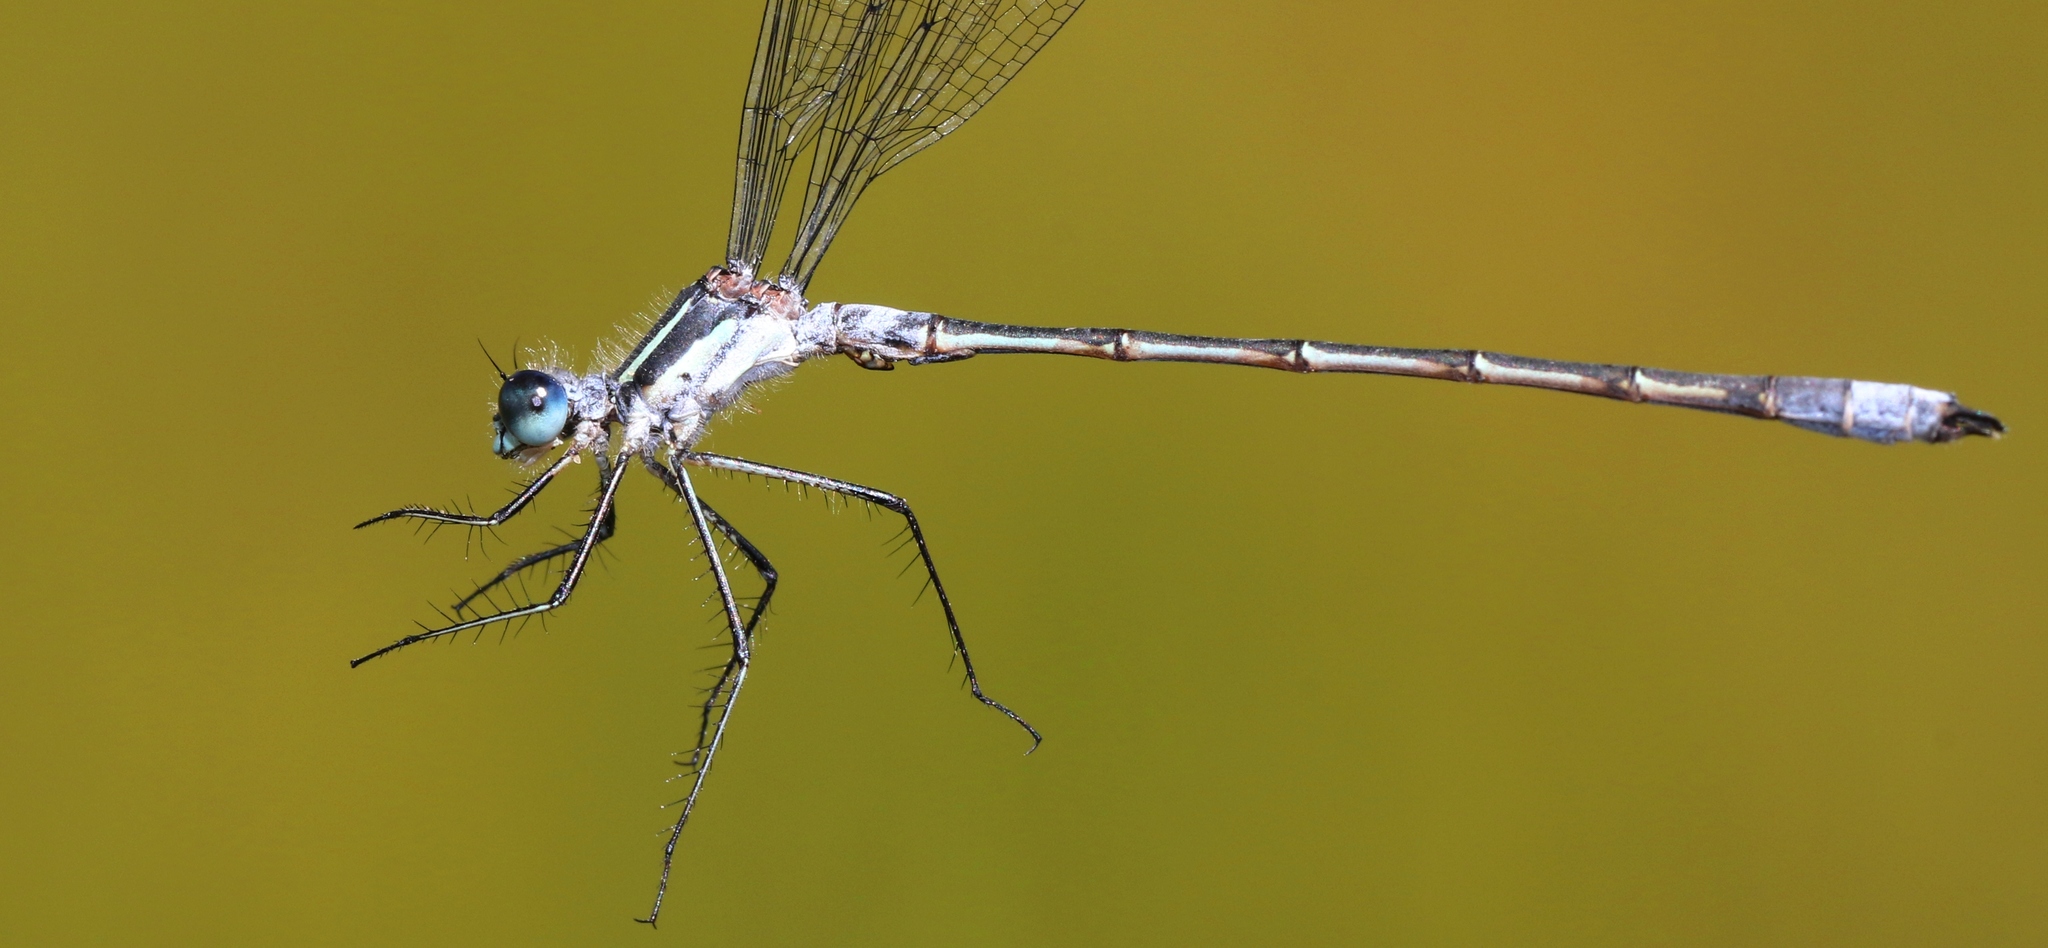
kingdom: Animalia
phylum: Arthropoda
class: Insecta
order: Odonata
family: Lestidae
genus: Lestes
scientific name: Lestes disjunctus
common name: Northern spreadwing
